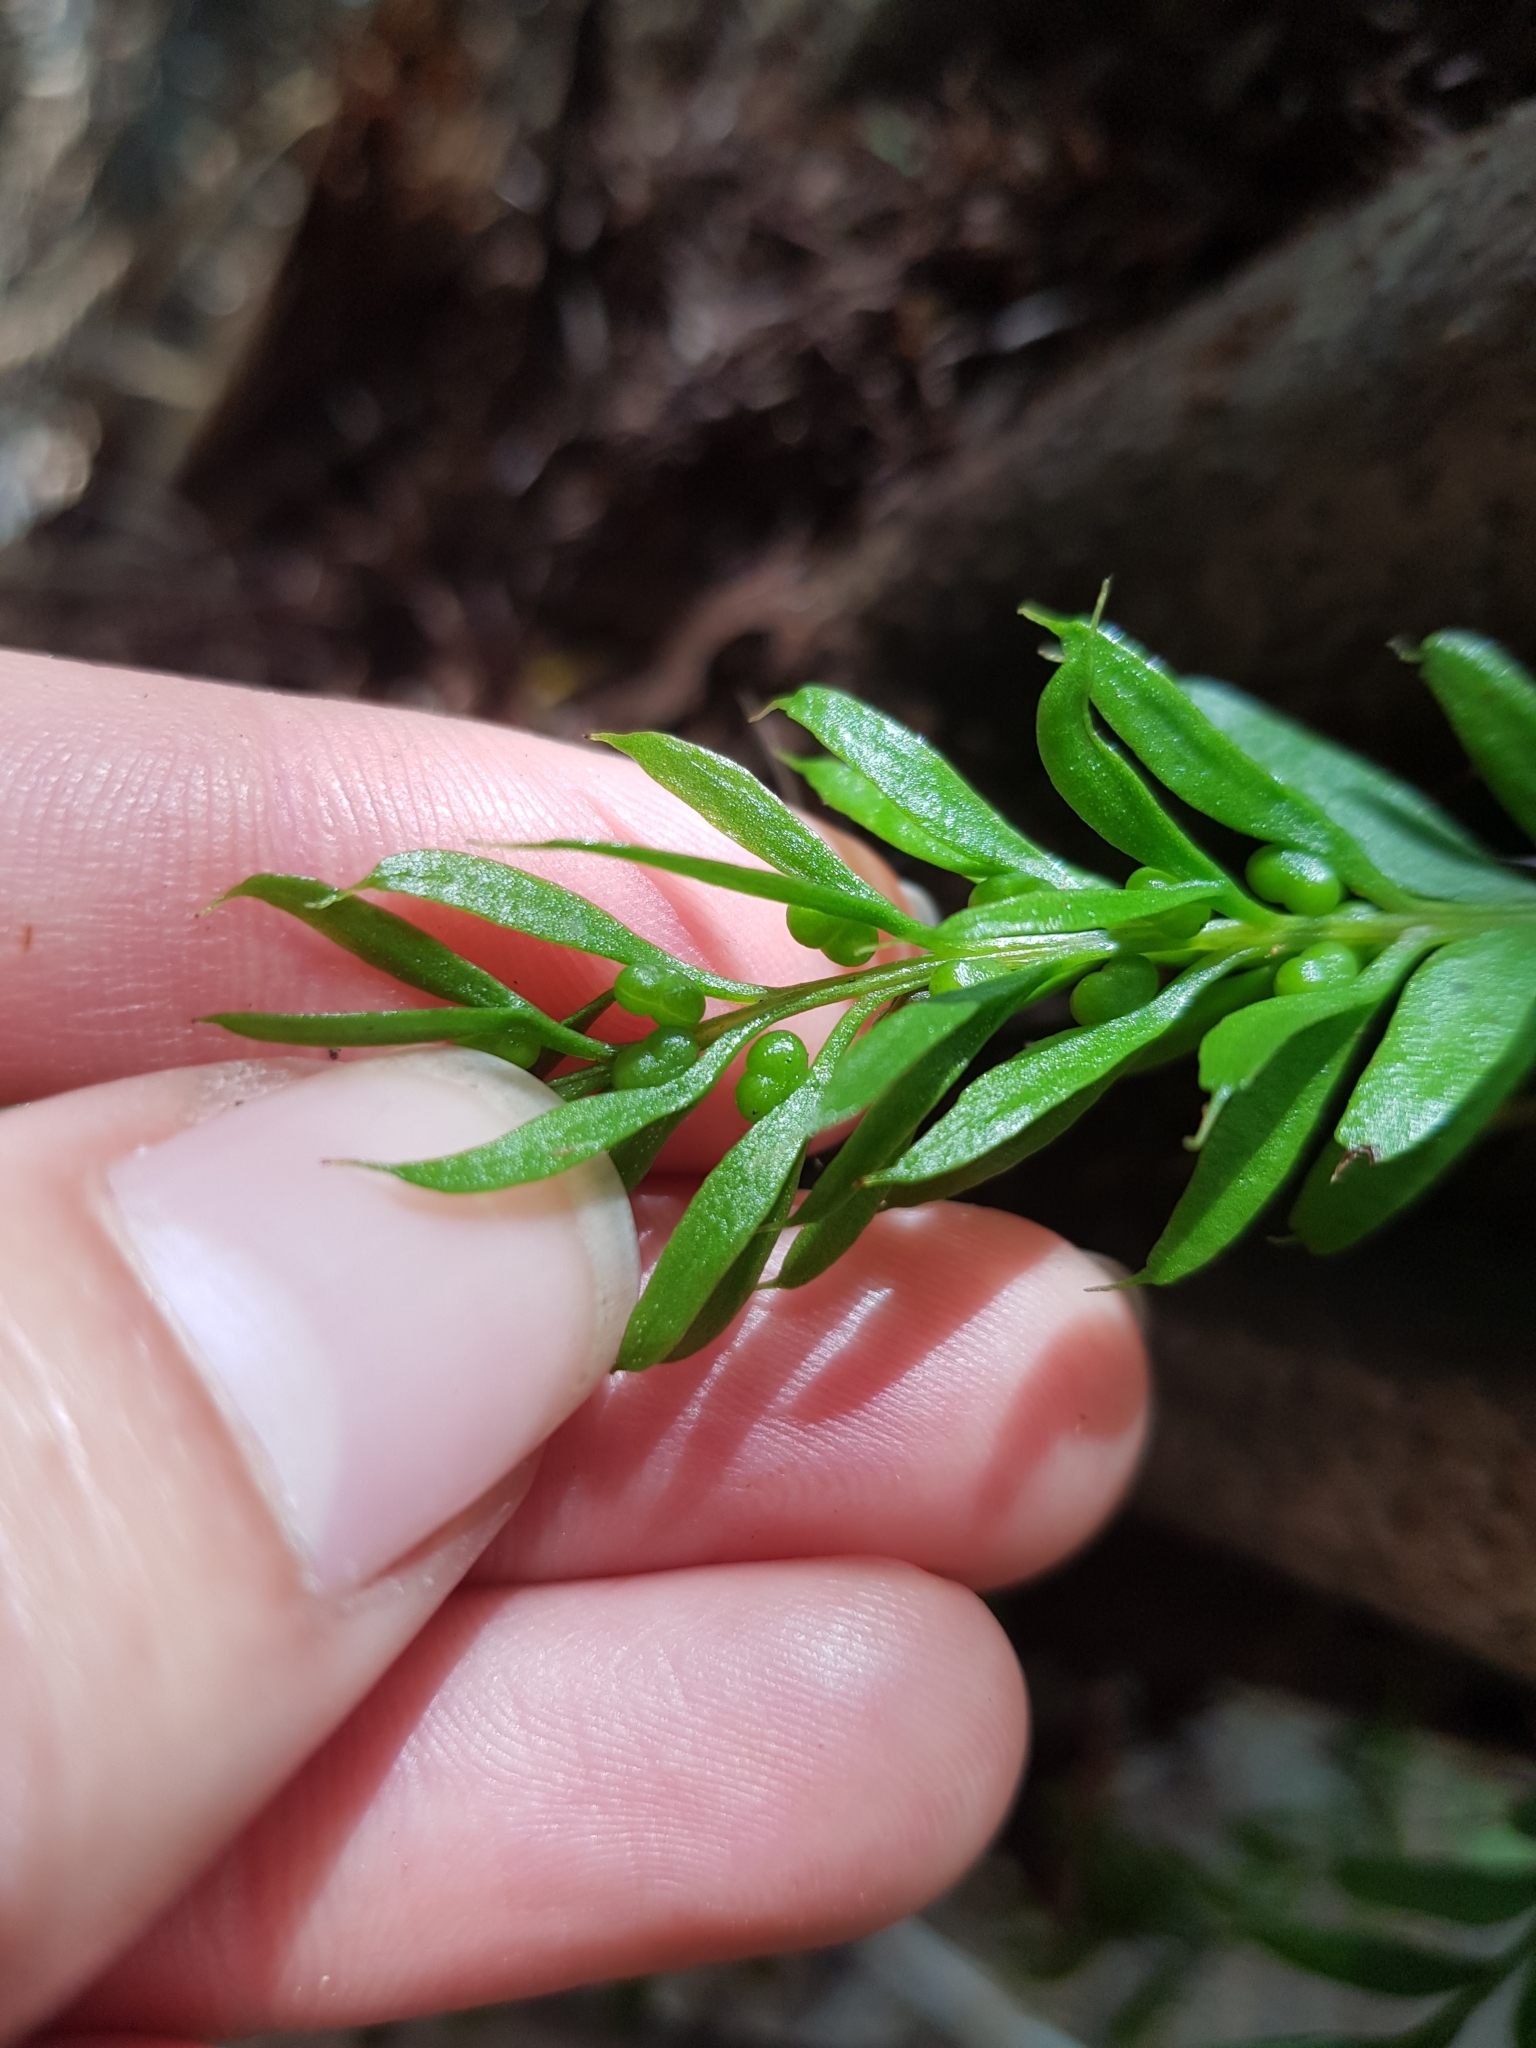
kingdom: Plantae
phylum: Tracheophyta
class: Polypodiopsida
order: Psilotales
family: Psilotaceae
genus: Tmesipteris
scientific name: Tmesipteris sigmatifolia
